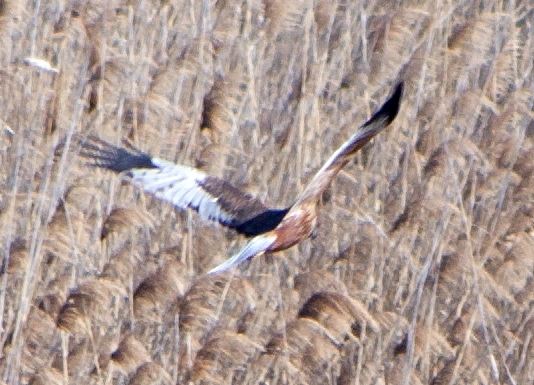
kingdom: Animalia
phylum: Chordata
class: Aves
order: Accipitriformes
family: Accipitridae
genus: Circus
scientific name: Circus aeruginosus
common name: Western marsh harrier
